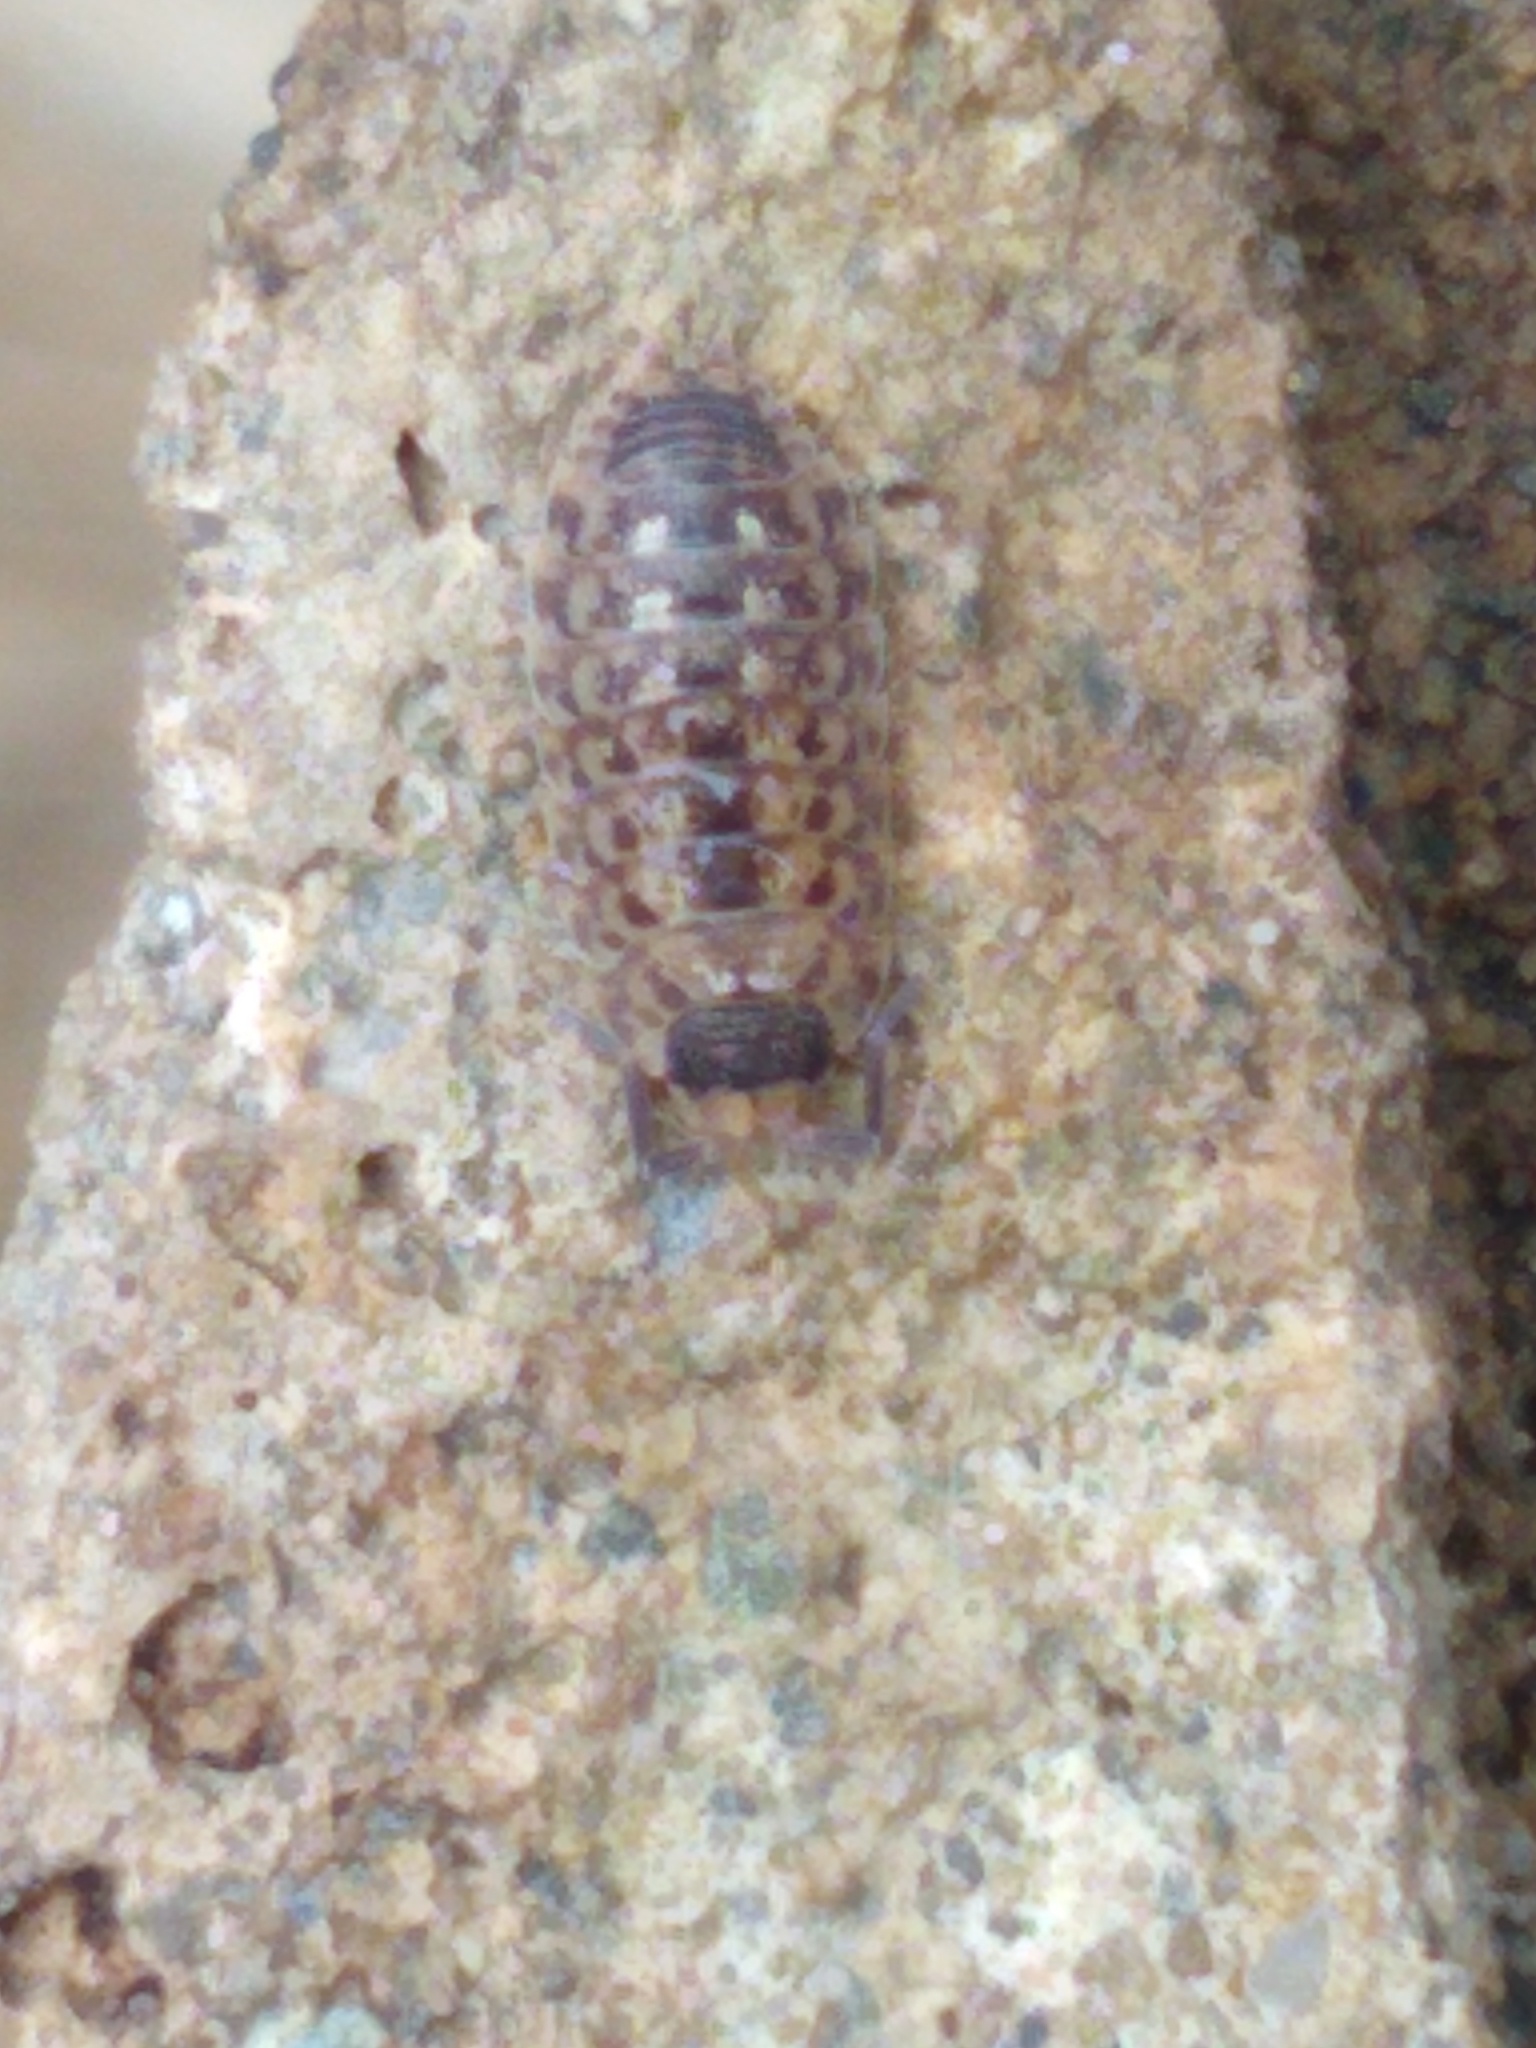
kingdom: Animalia
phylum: Arthropoda
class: Malacostraca
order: Isopoda
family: Porcellionidae
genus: Porcellio
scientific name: Porcellio spinicornis
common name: Painted woodlouse
